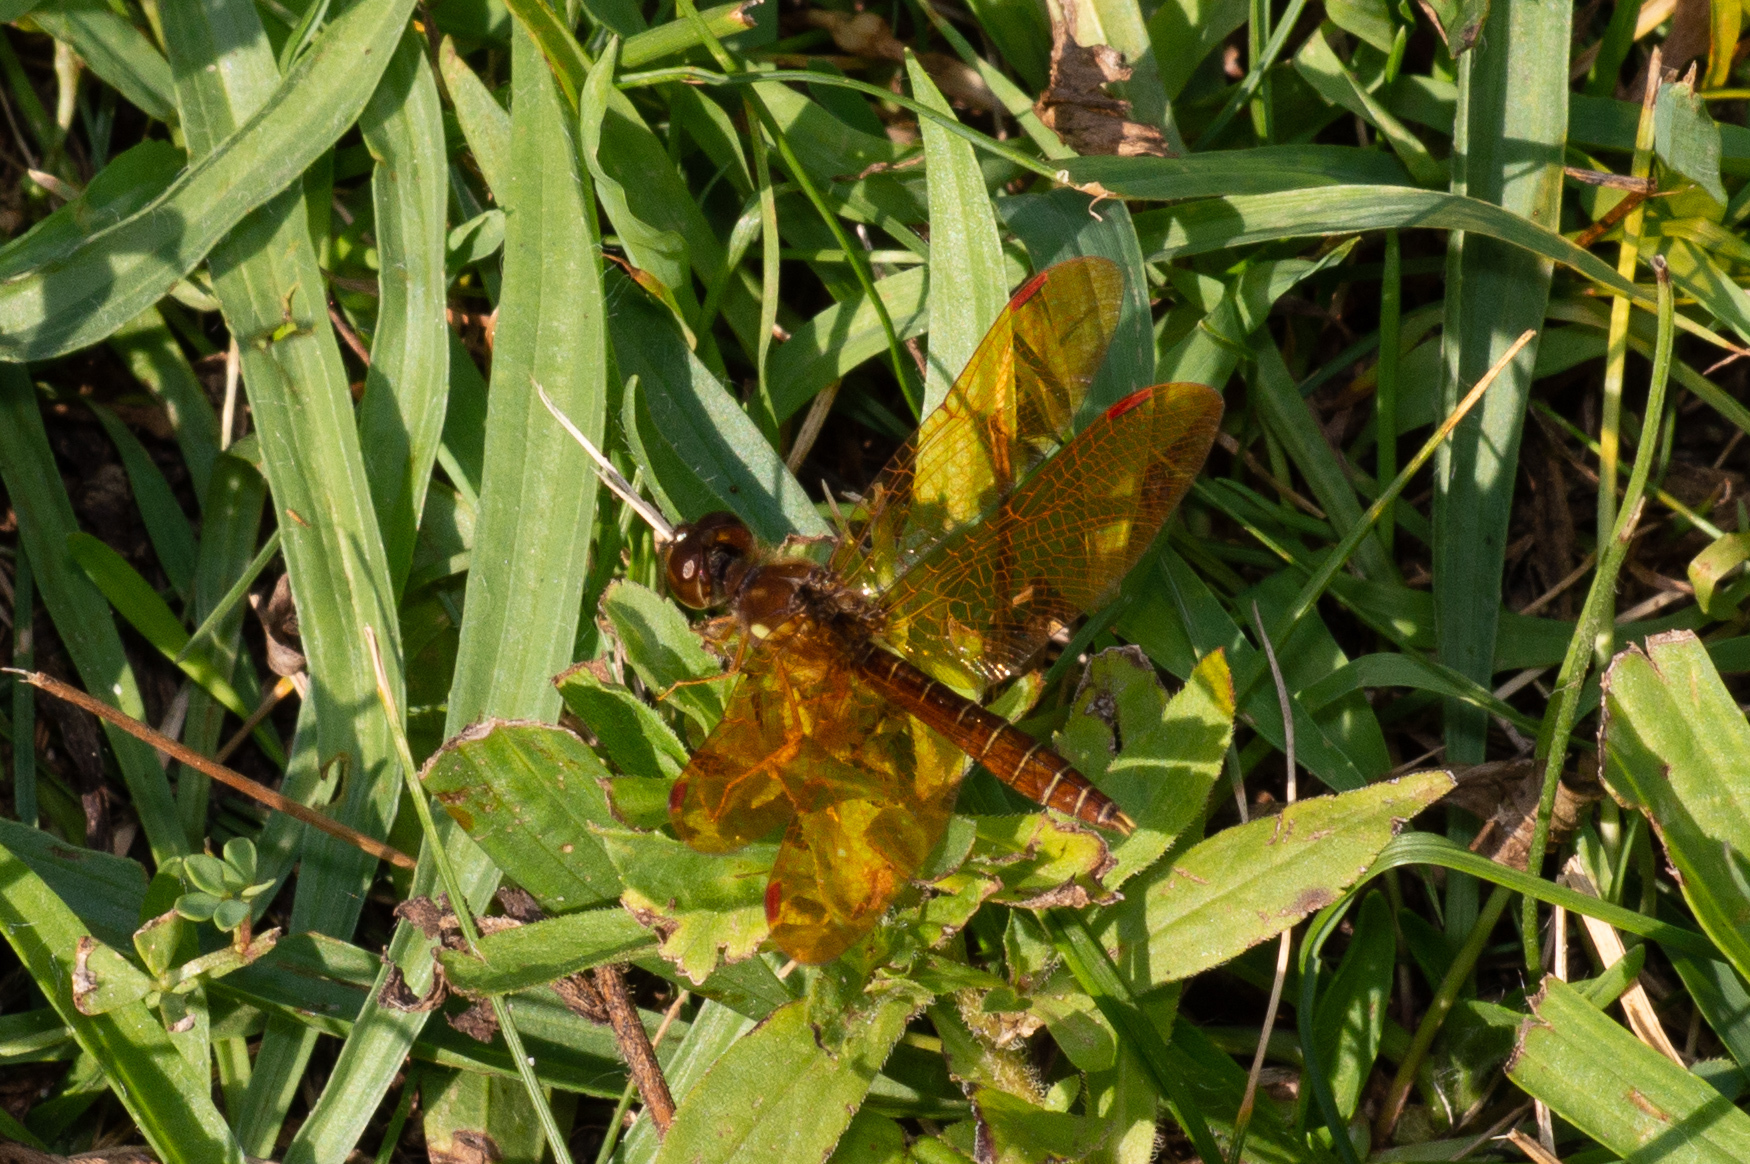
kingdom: Animalia
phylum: Arthropoda
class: Insecta
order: Odonata
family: Libellulidae
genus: Perithemis
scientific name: Perithemis tenera
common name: Eastern amberwing
